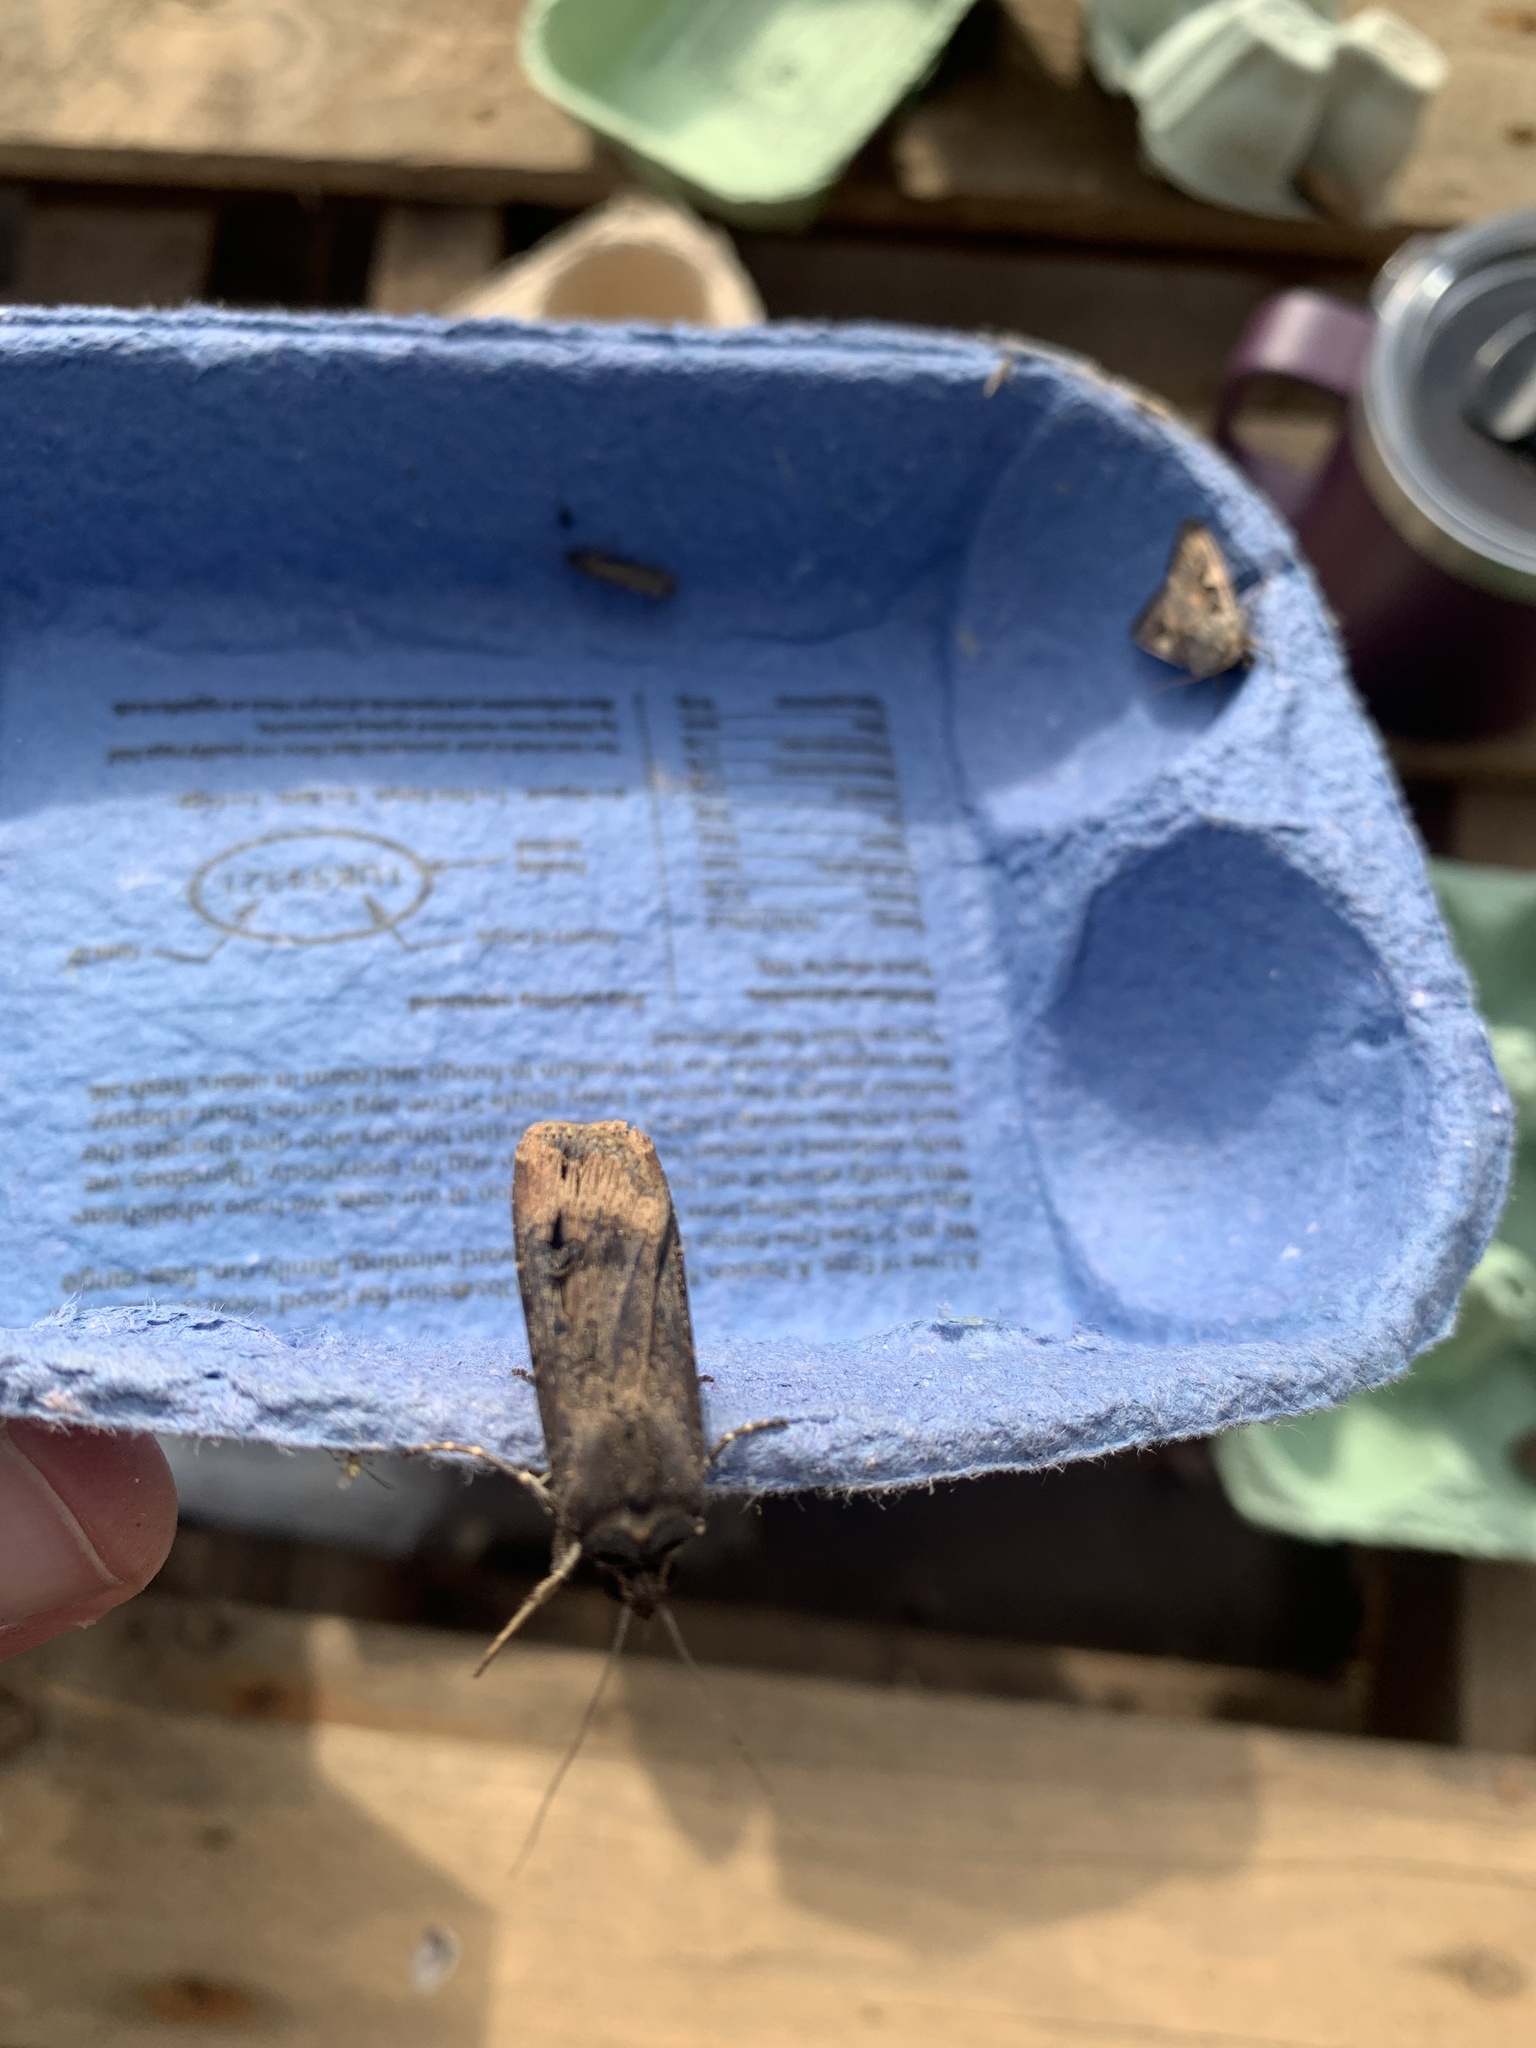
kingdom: Animalia
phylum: Arthropoda
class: Insecta
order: Lepidoptera
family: Noctuidae
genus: Noctua
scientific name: Noctua pronuba
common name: Large yellow underwing
